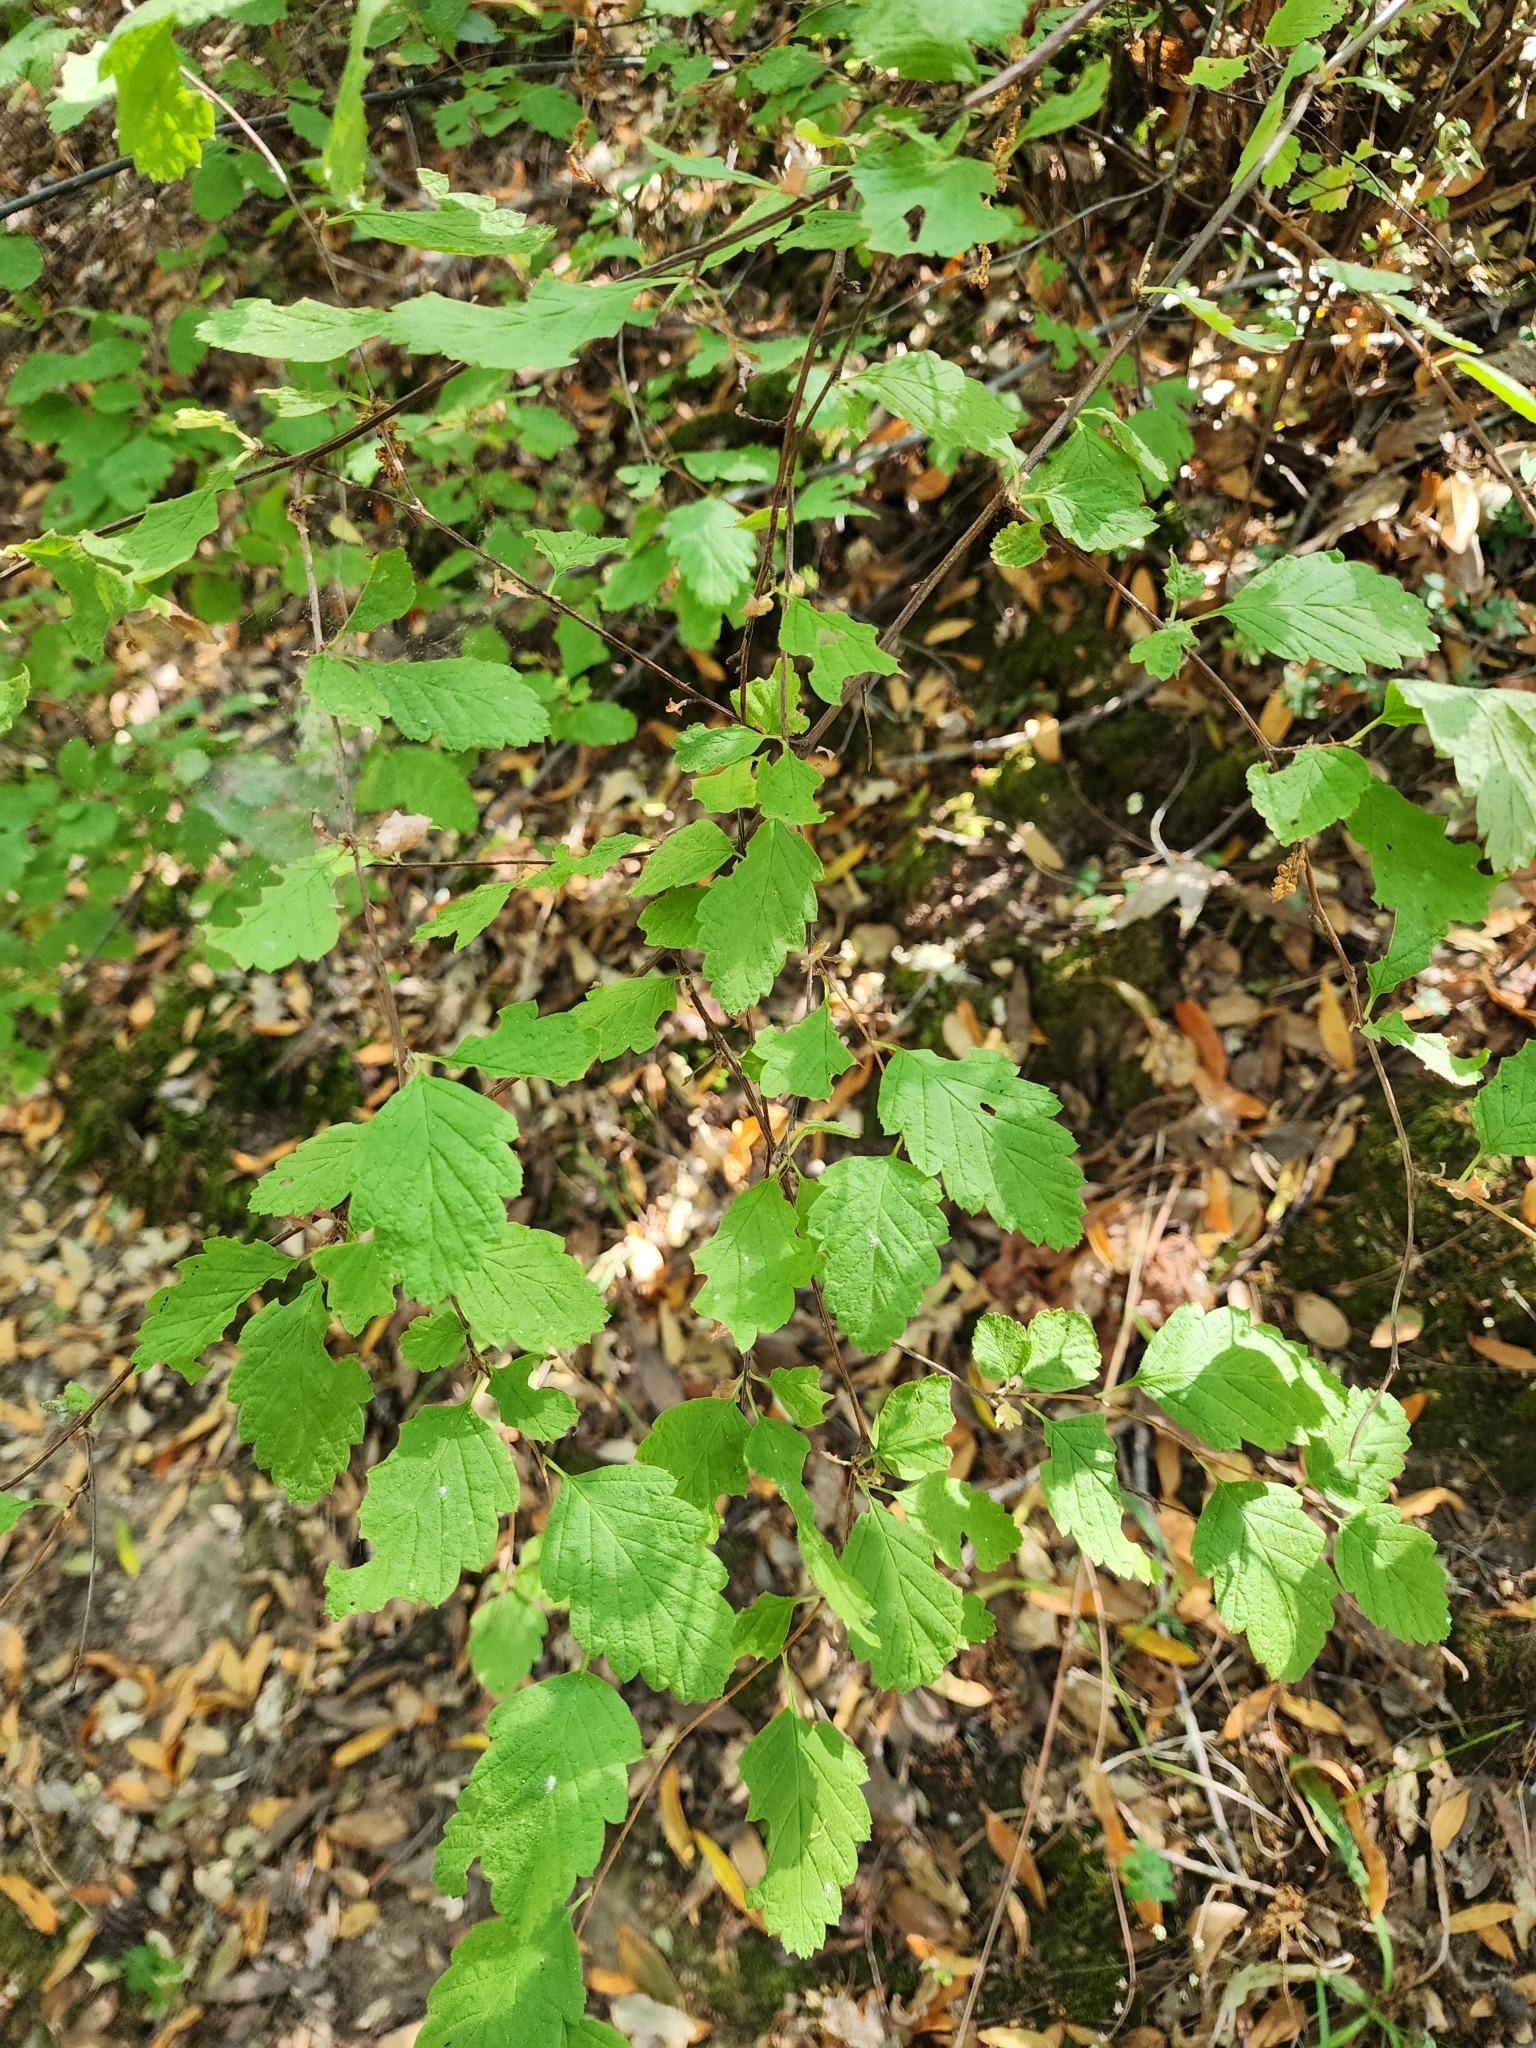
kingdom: Plantae
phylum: Tracheophyta
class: Magnoliopsida
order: Rosales
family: Rosaceae
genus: Holodiscus
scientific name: Holodiscus discolor
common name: Oceanspray
